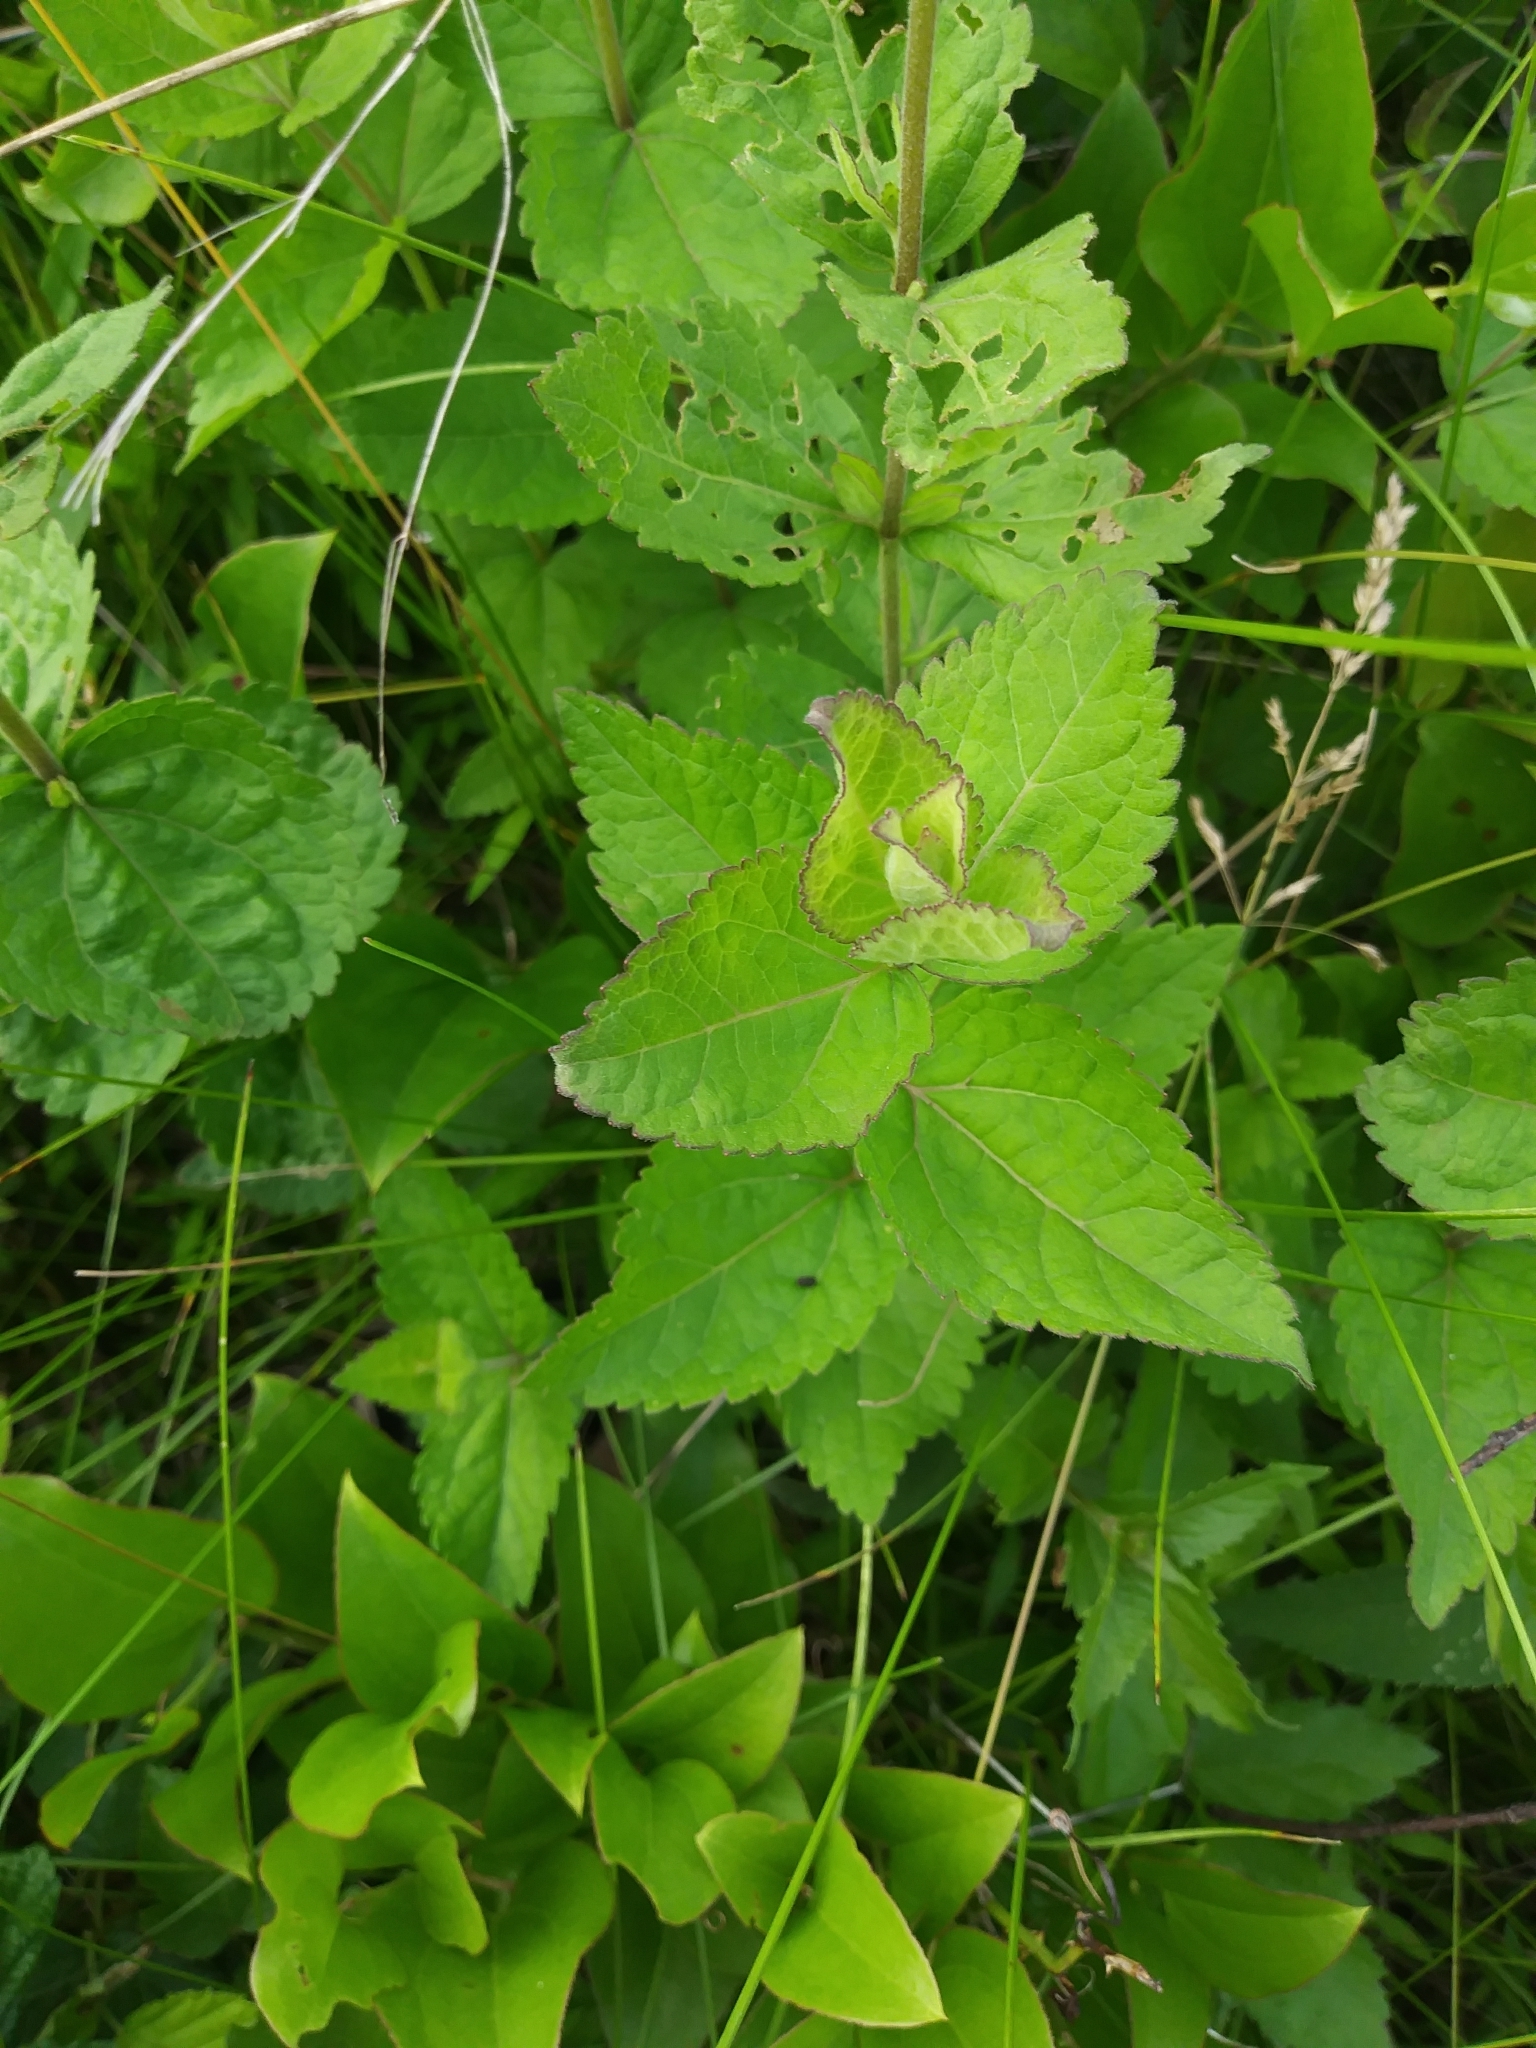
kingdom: Plantae
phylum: Tracheophyta
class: Magnoliopsida
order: Asterales
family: Asteraceae
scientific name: Asteraceae
